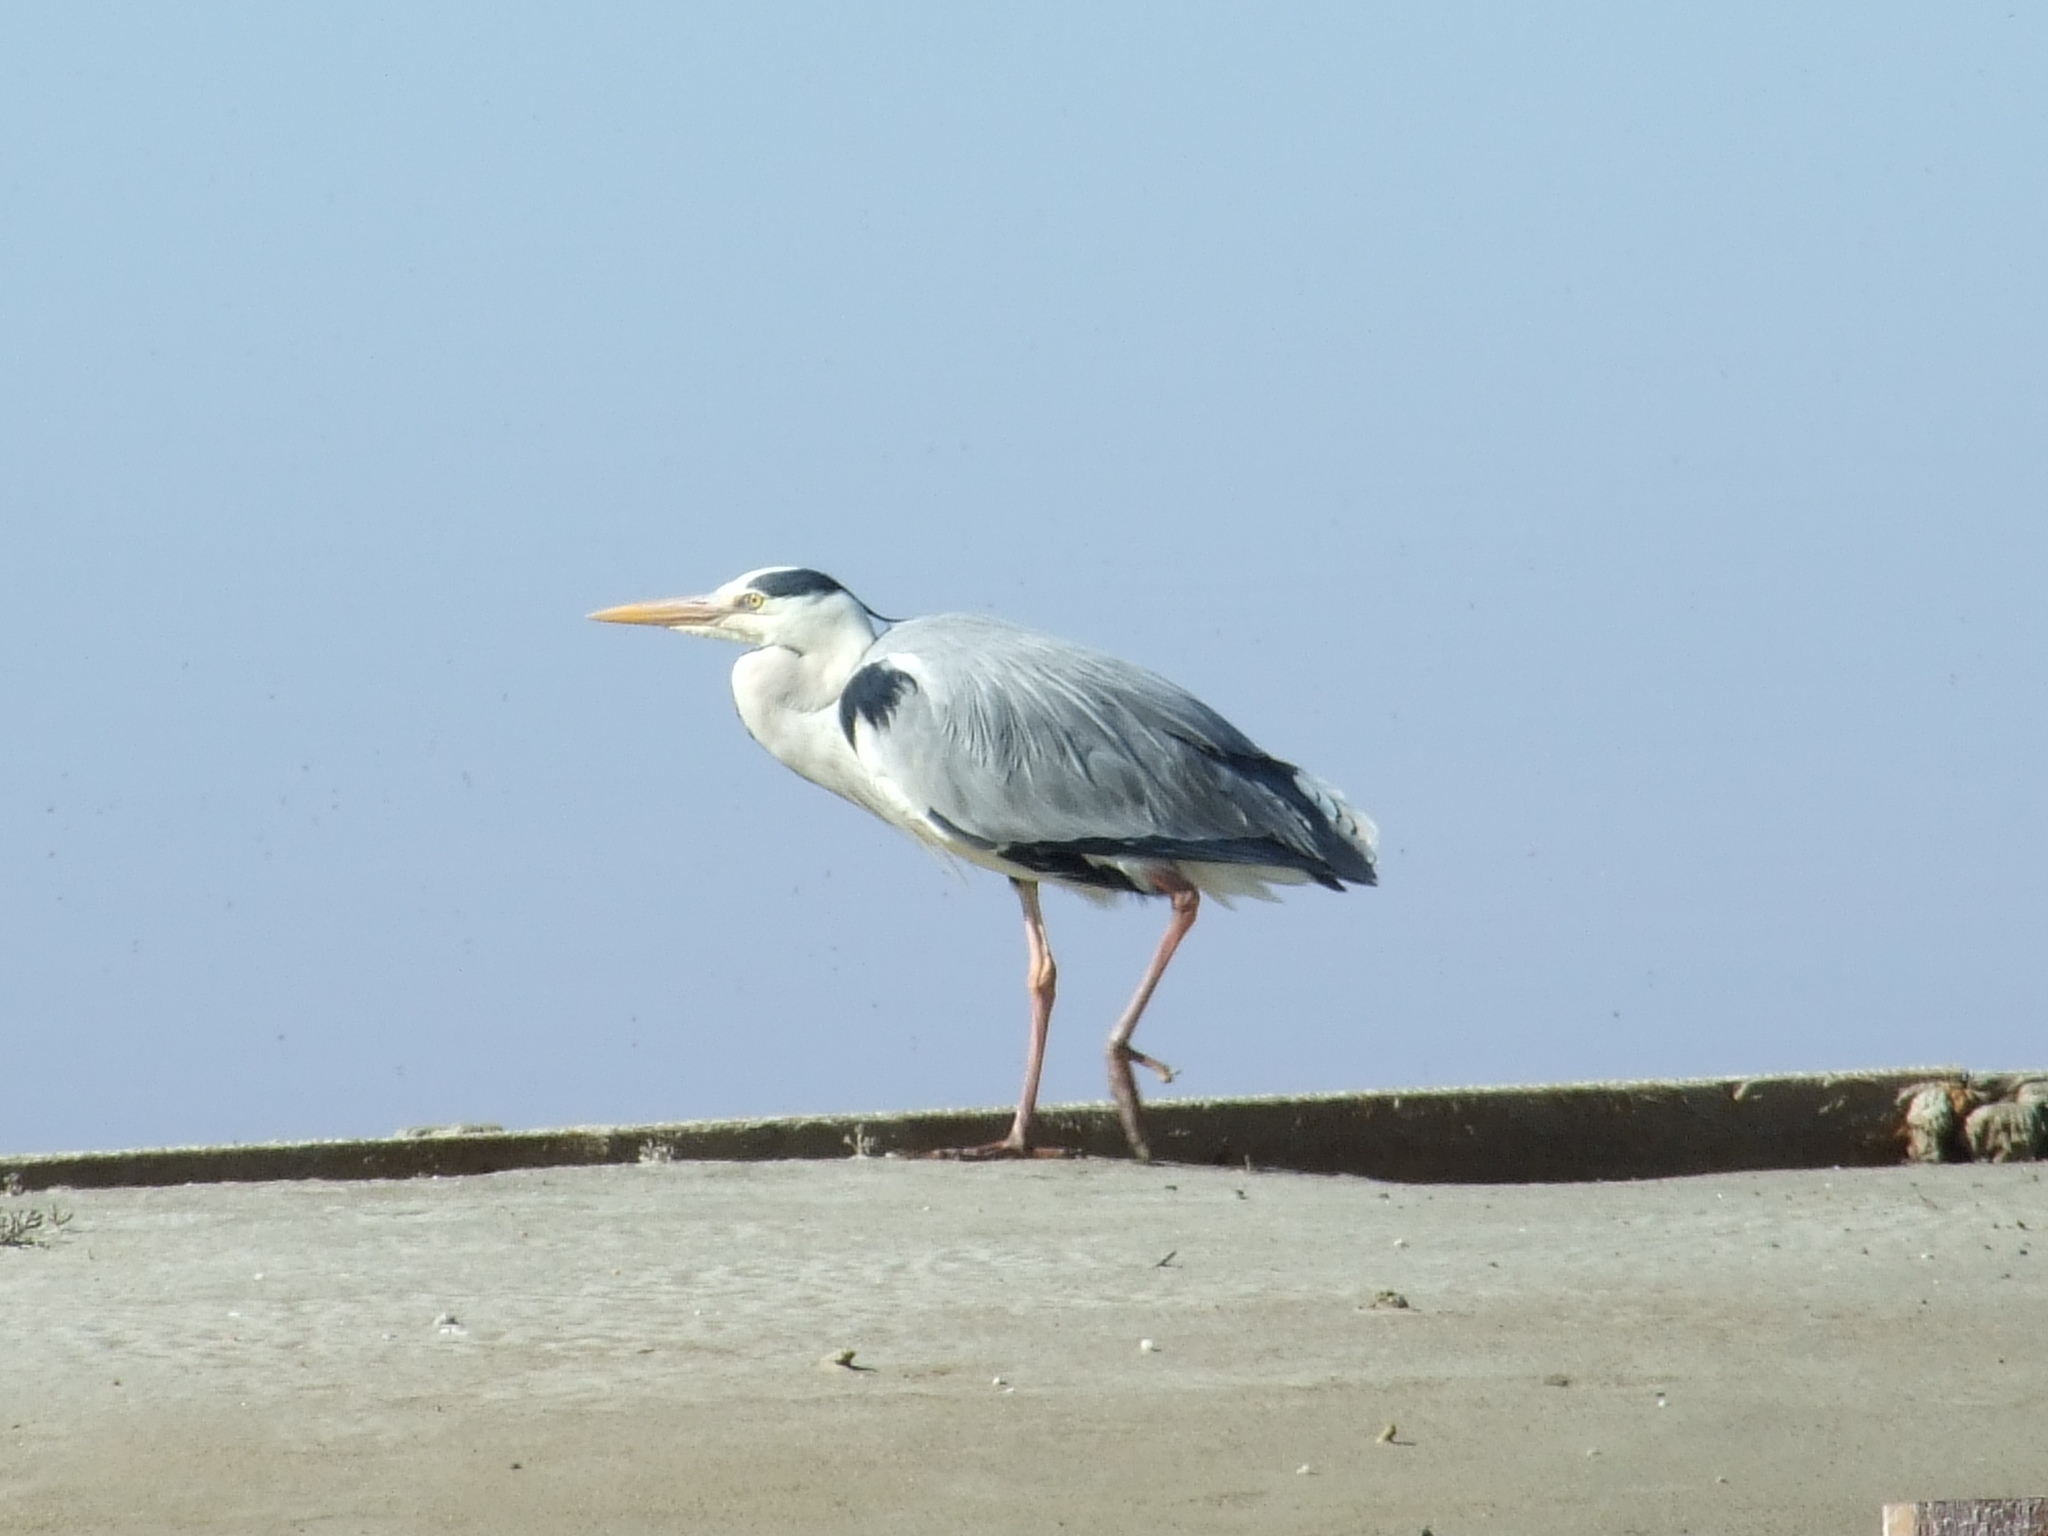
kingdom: Animalia
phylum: Chordata
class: Aves
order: Pelecaniformes
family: Ardeidae
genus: Ardea
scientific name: Ardea cinerea
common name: Grey heron
